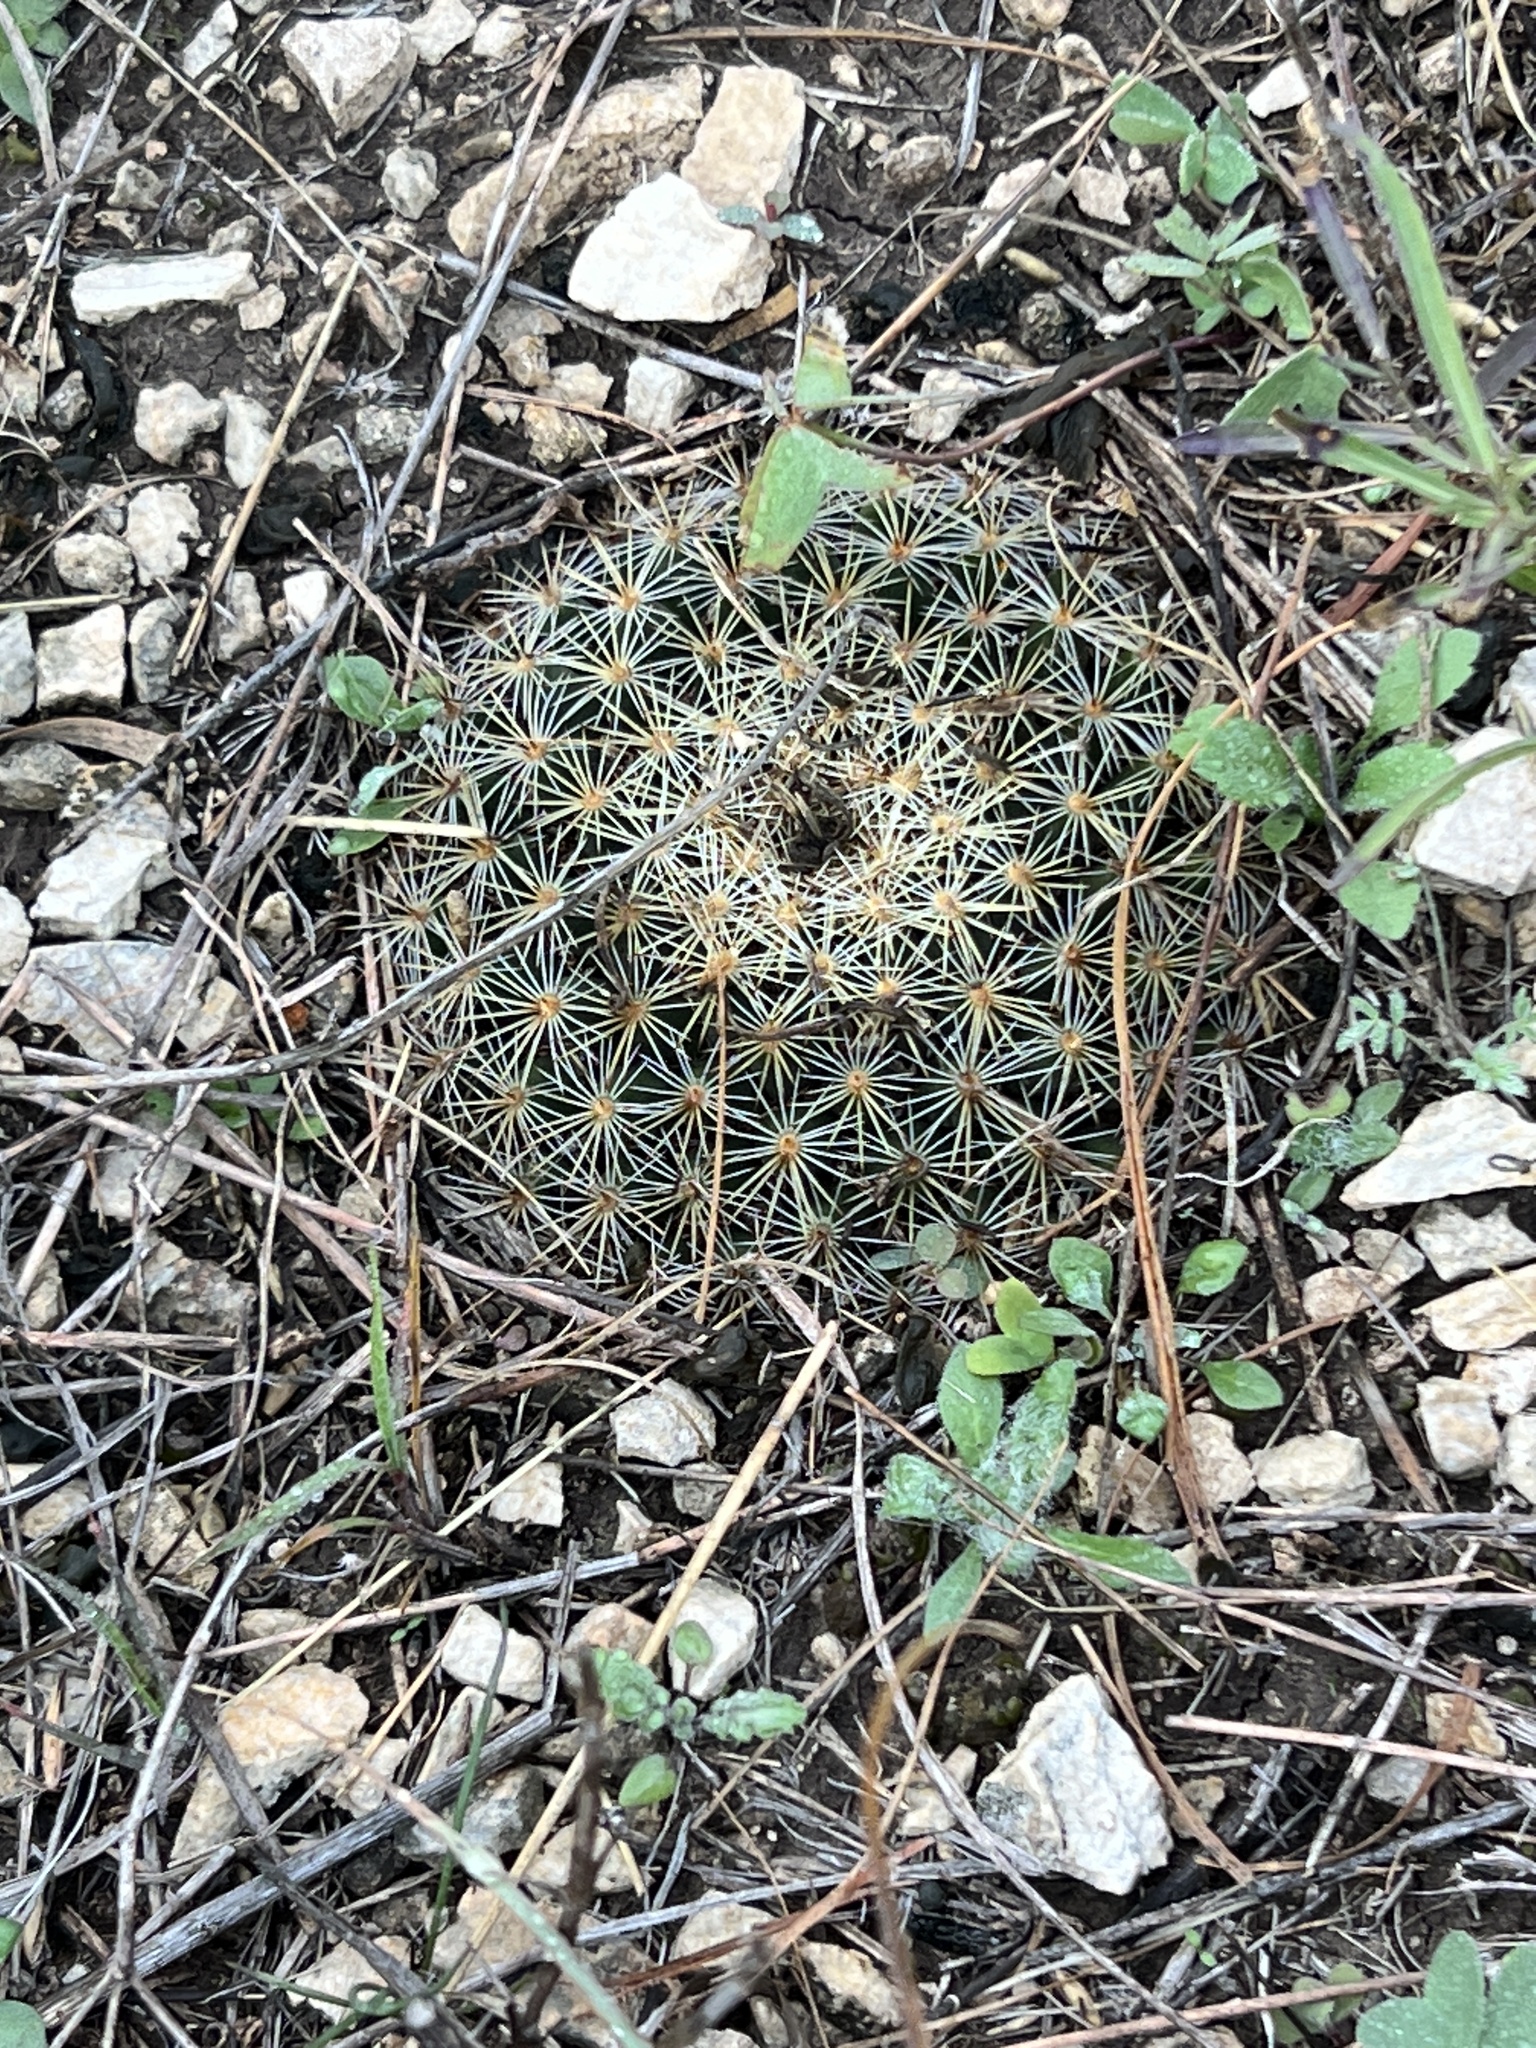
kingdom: Plantae
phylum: Tracheophyta
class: Magnoliopsida
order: Caryophyllales
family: Cactaceae
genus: Mammillaria
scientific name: Mammillaria heyderi
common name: Little nipple cactus
